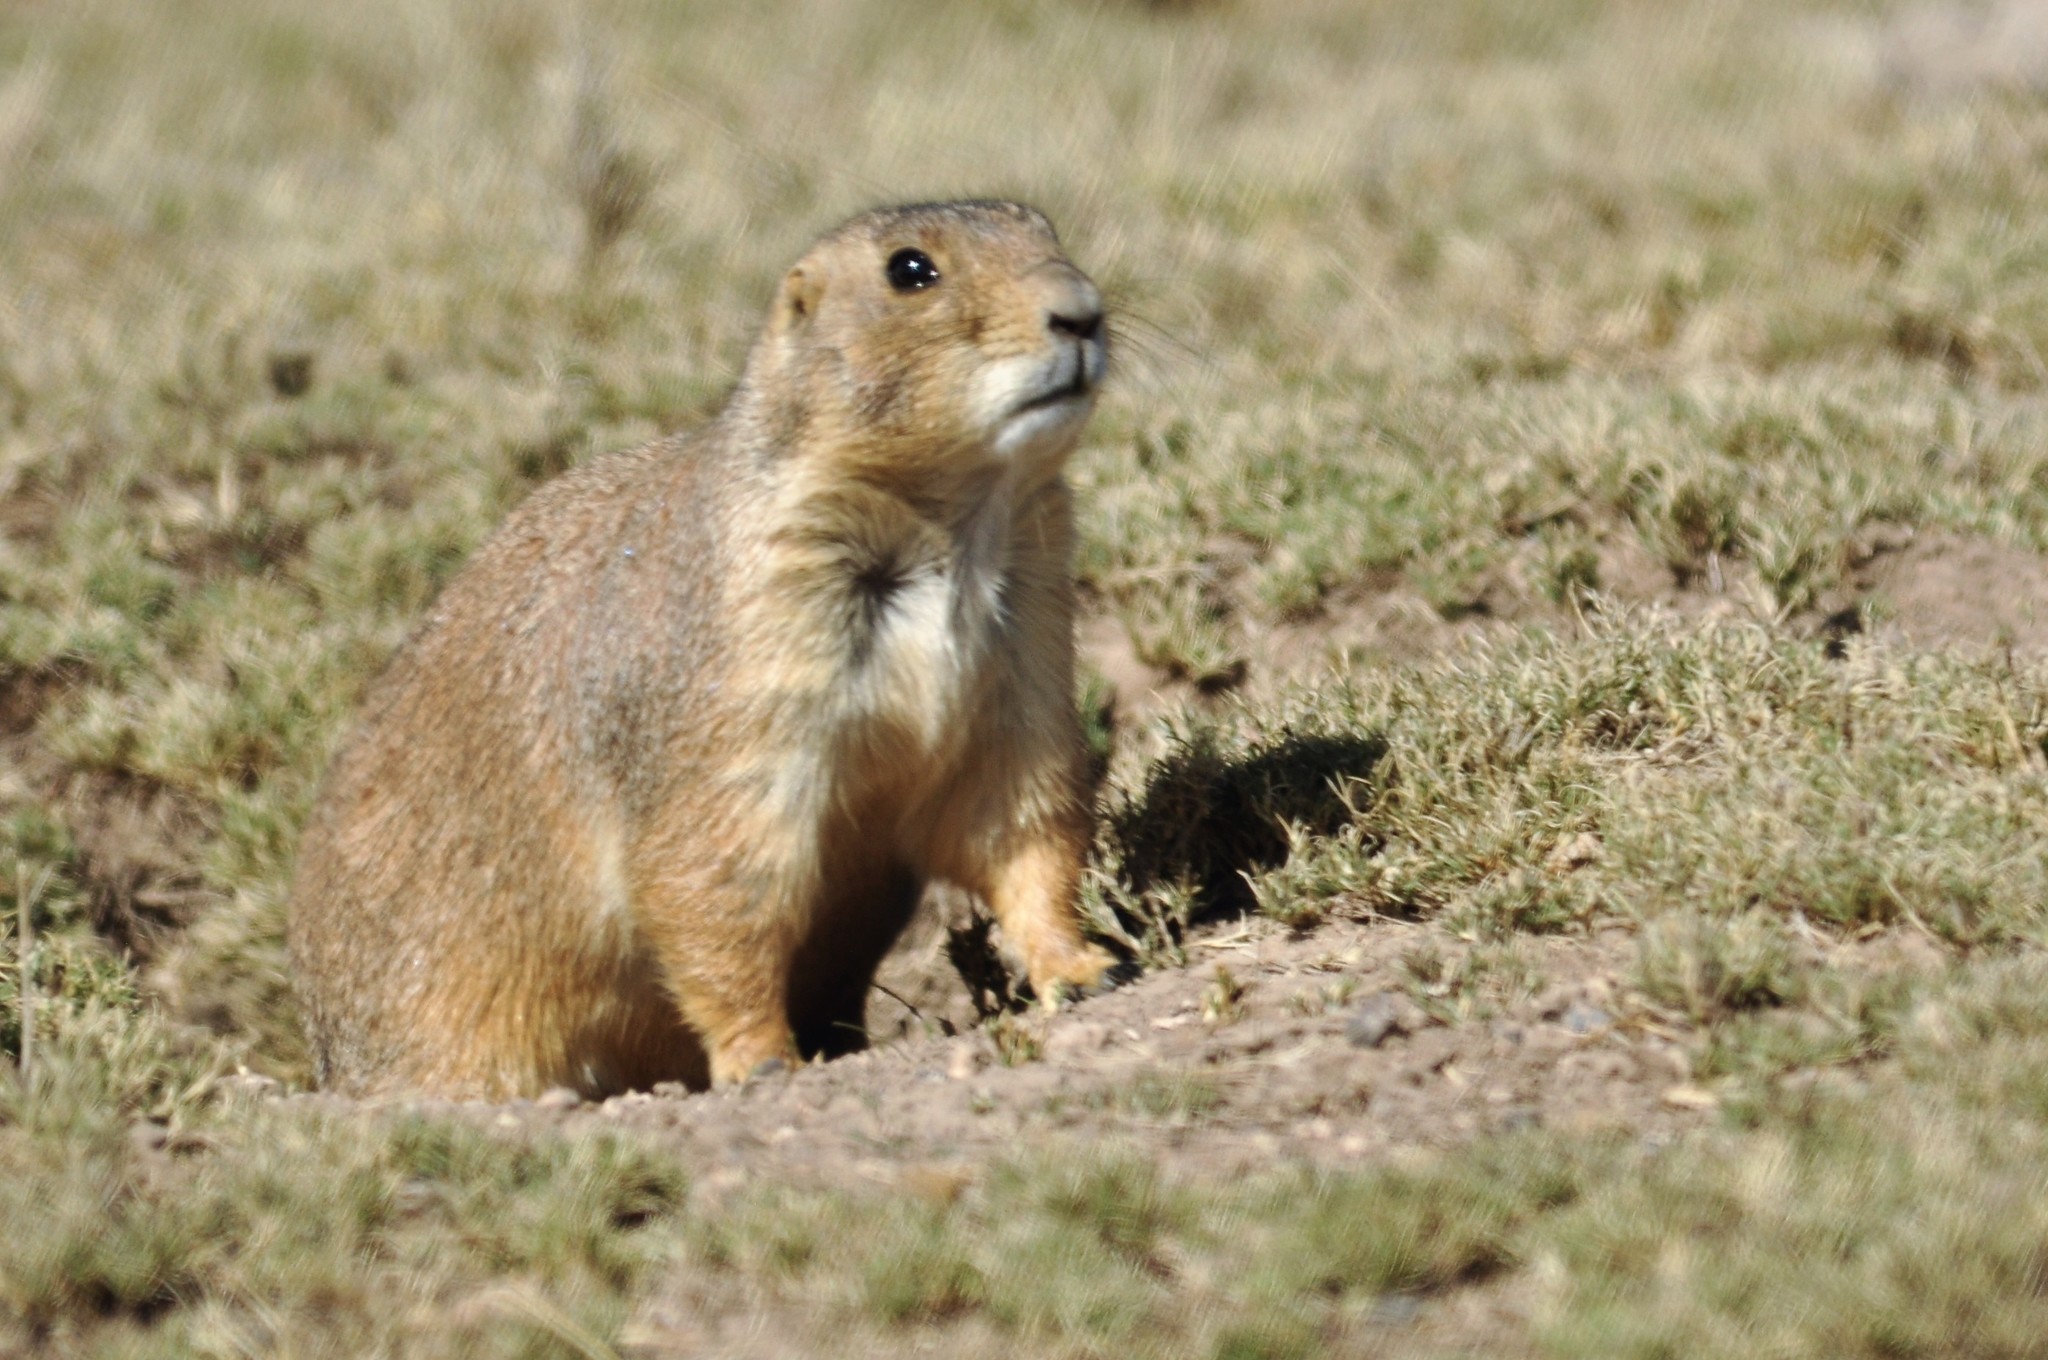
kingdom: Animalia
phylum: Chordata
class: Mammalia
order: Rodentia
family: Sciuridae
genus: Cynomys
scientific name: Cynomys mexicanus
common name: Mexican prairie dog
